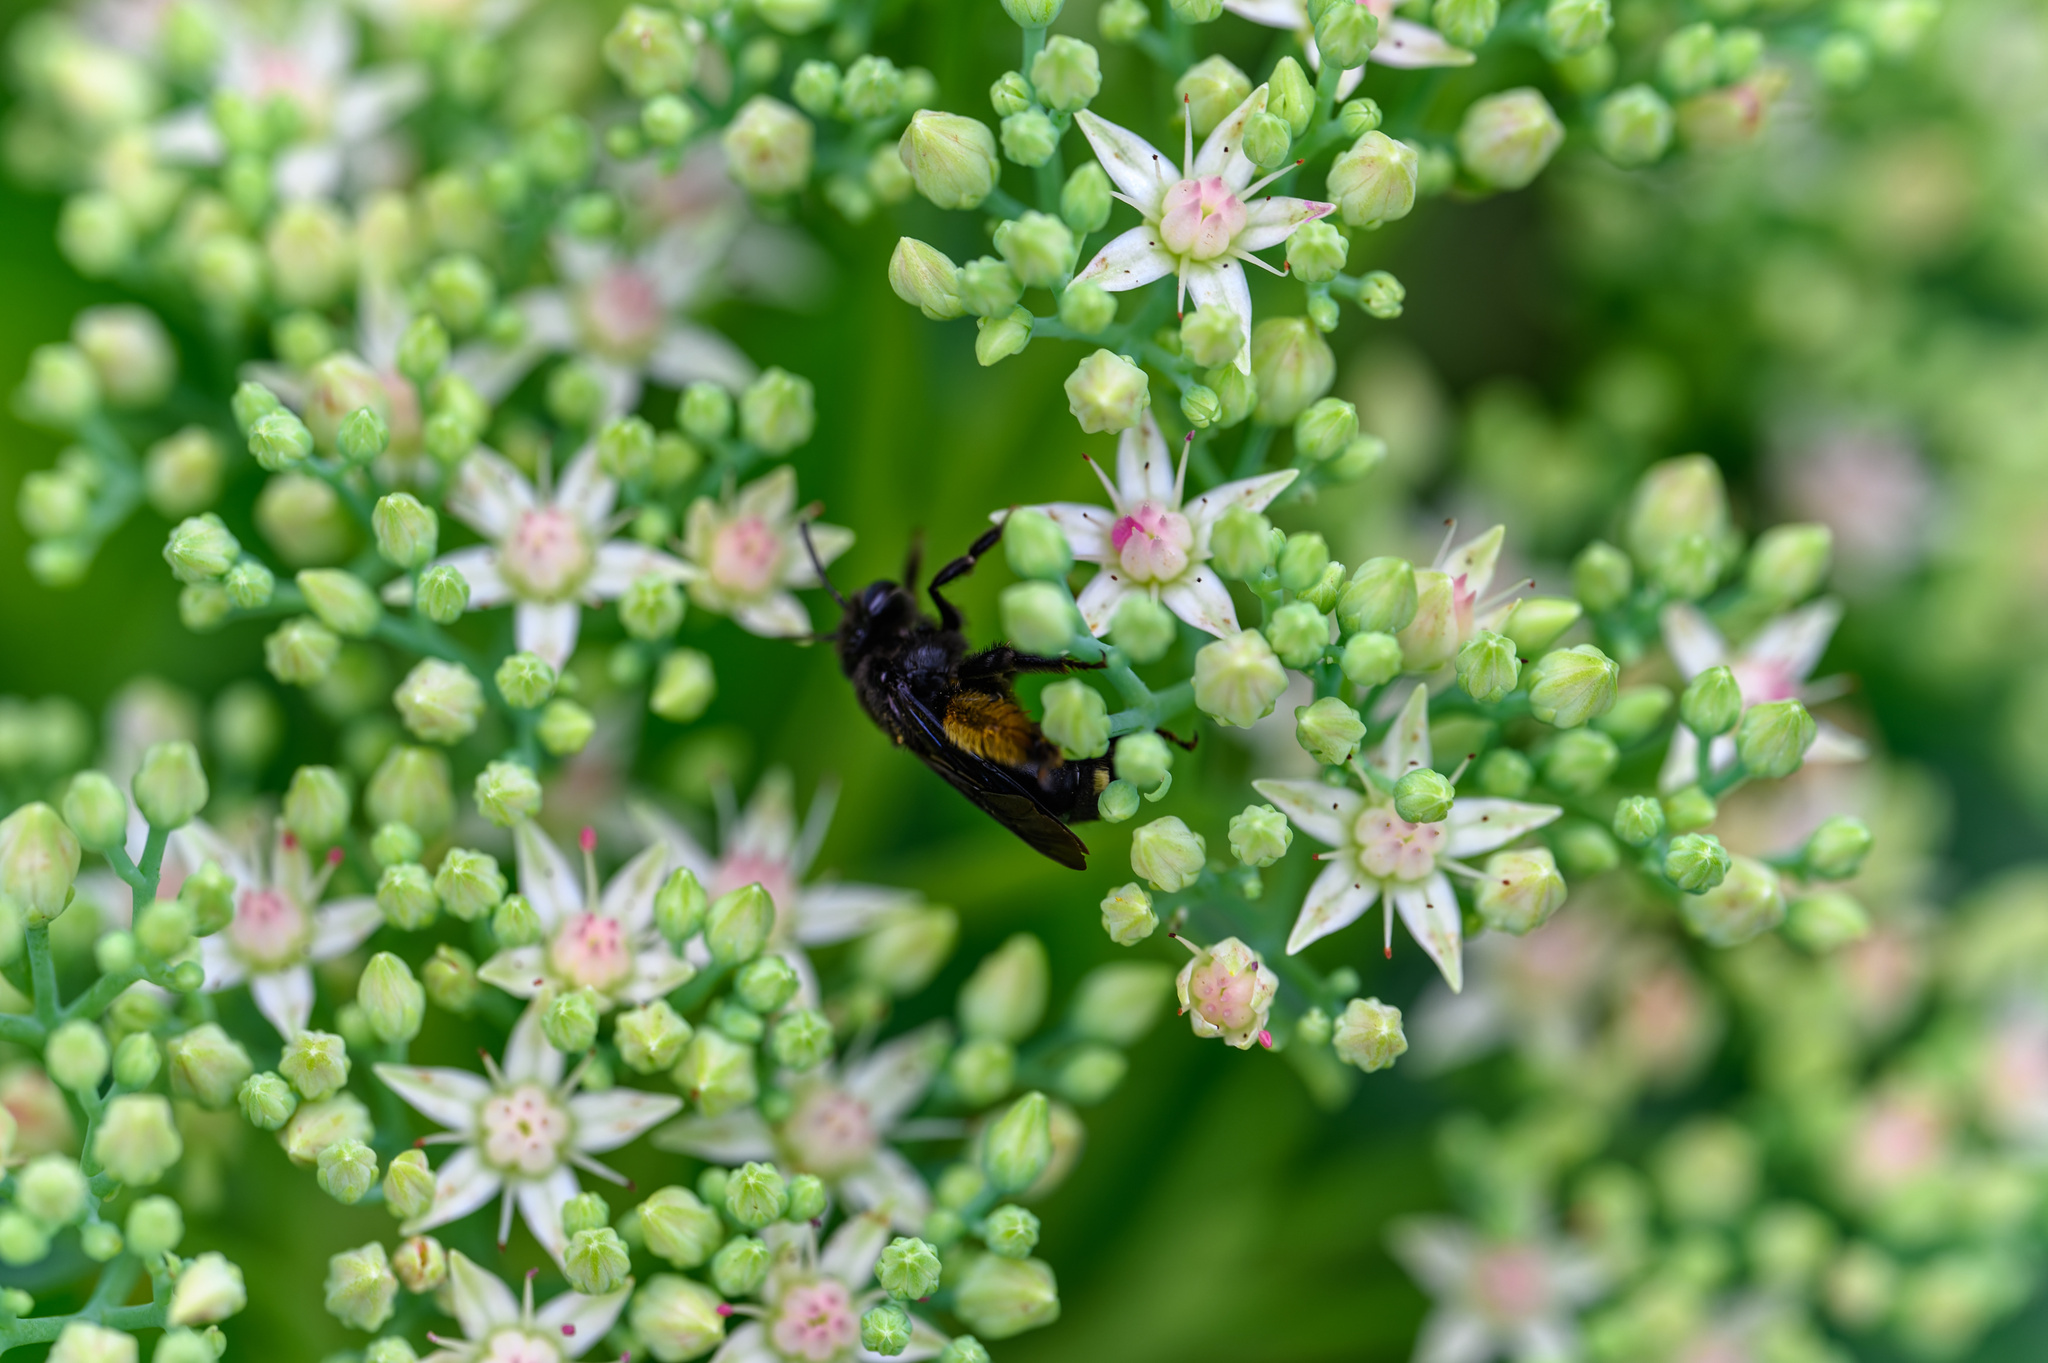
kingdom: Animalia
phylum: Arthropoda
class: Insecta
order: Hymenoptera
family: Apidae
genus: Melissodes
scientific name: Melissodes bimaculatus
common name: Two-spotted long-horned bee
